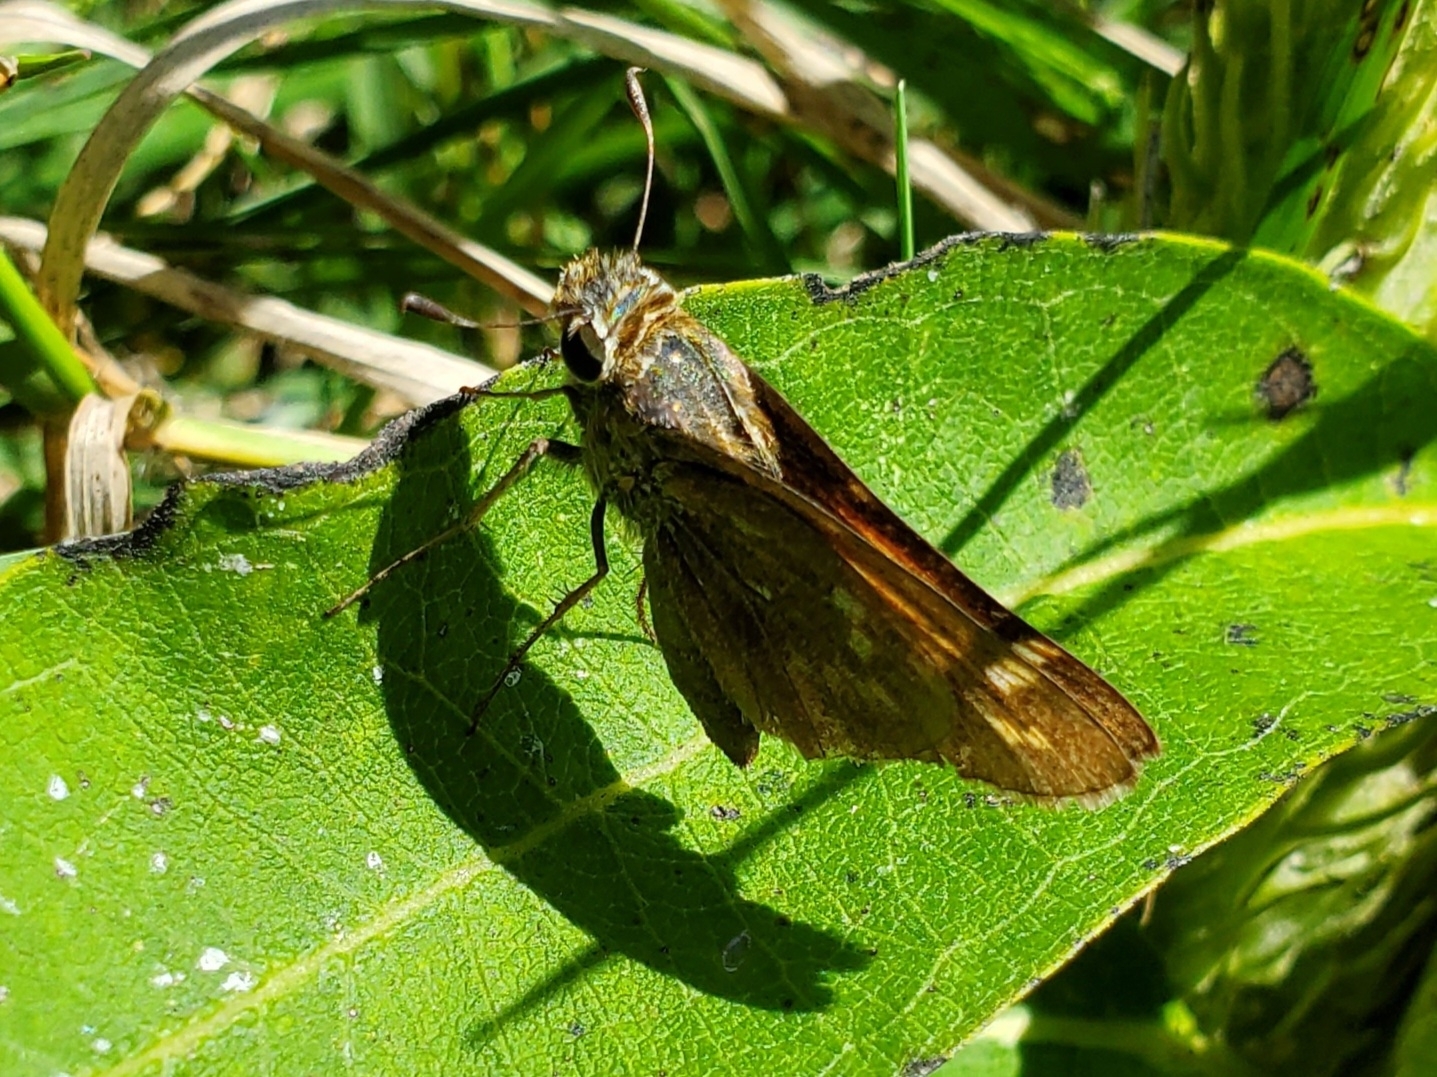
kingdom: Animalia
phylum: Arthropoda
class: Insecta
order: Lepidoptera
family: Hesperiidae
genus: Atalopedes
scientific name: Atalopedes
